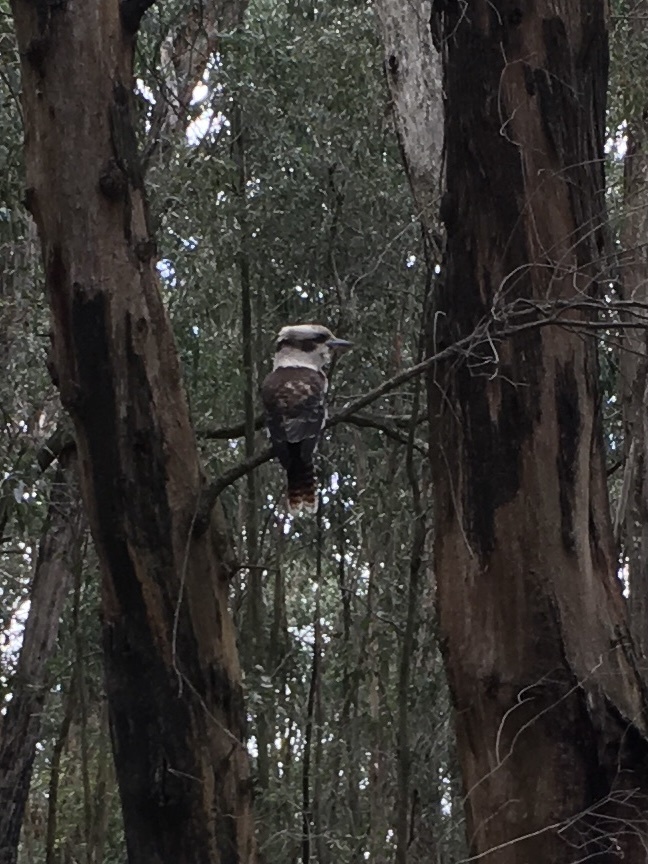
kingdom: Animalia
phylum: Chordata
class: Aves
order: Coraciiformes
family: Alcedinidae
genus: Dacelo
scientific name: Dacelo novaeguineae
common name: Laughing kookaburra
